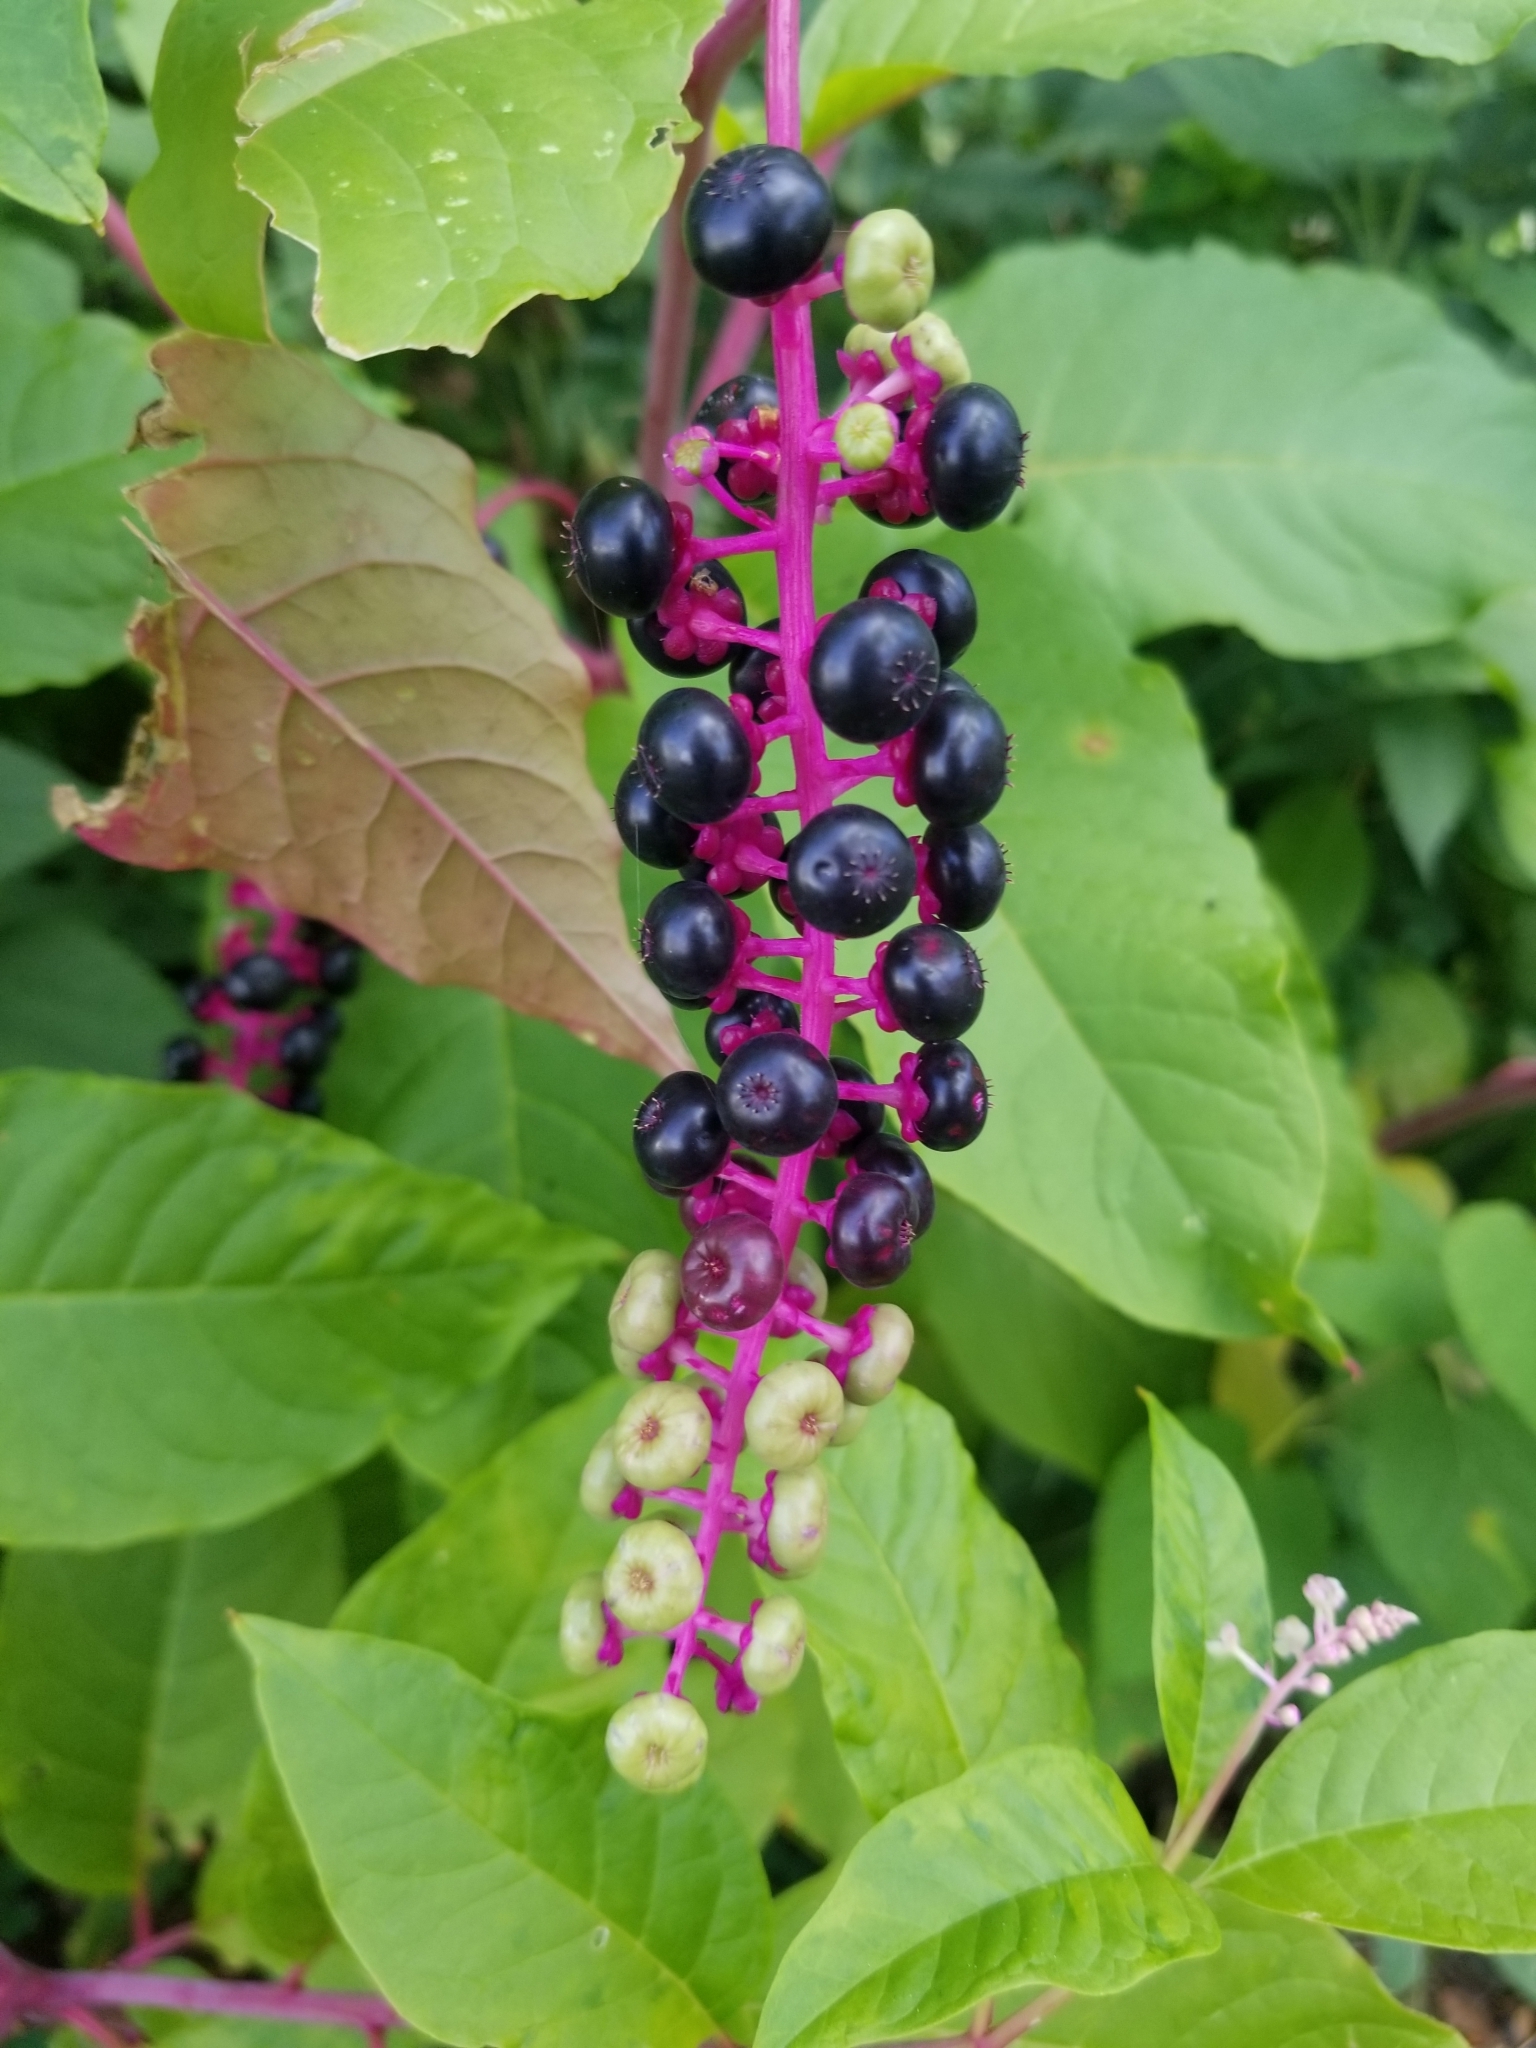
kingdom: Plantae
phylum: Tracheophyta
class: Magnoliopsida
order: Caryophyllales
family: Phytolaccaceae
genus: Phytolacca
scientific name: Phytolacca americana
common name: American pokeweed
